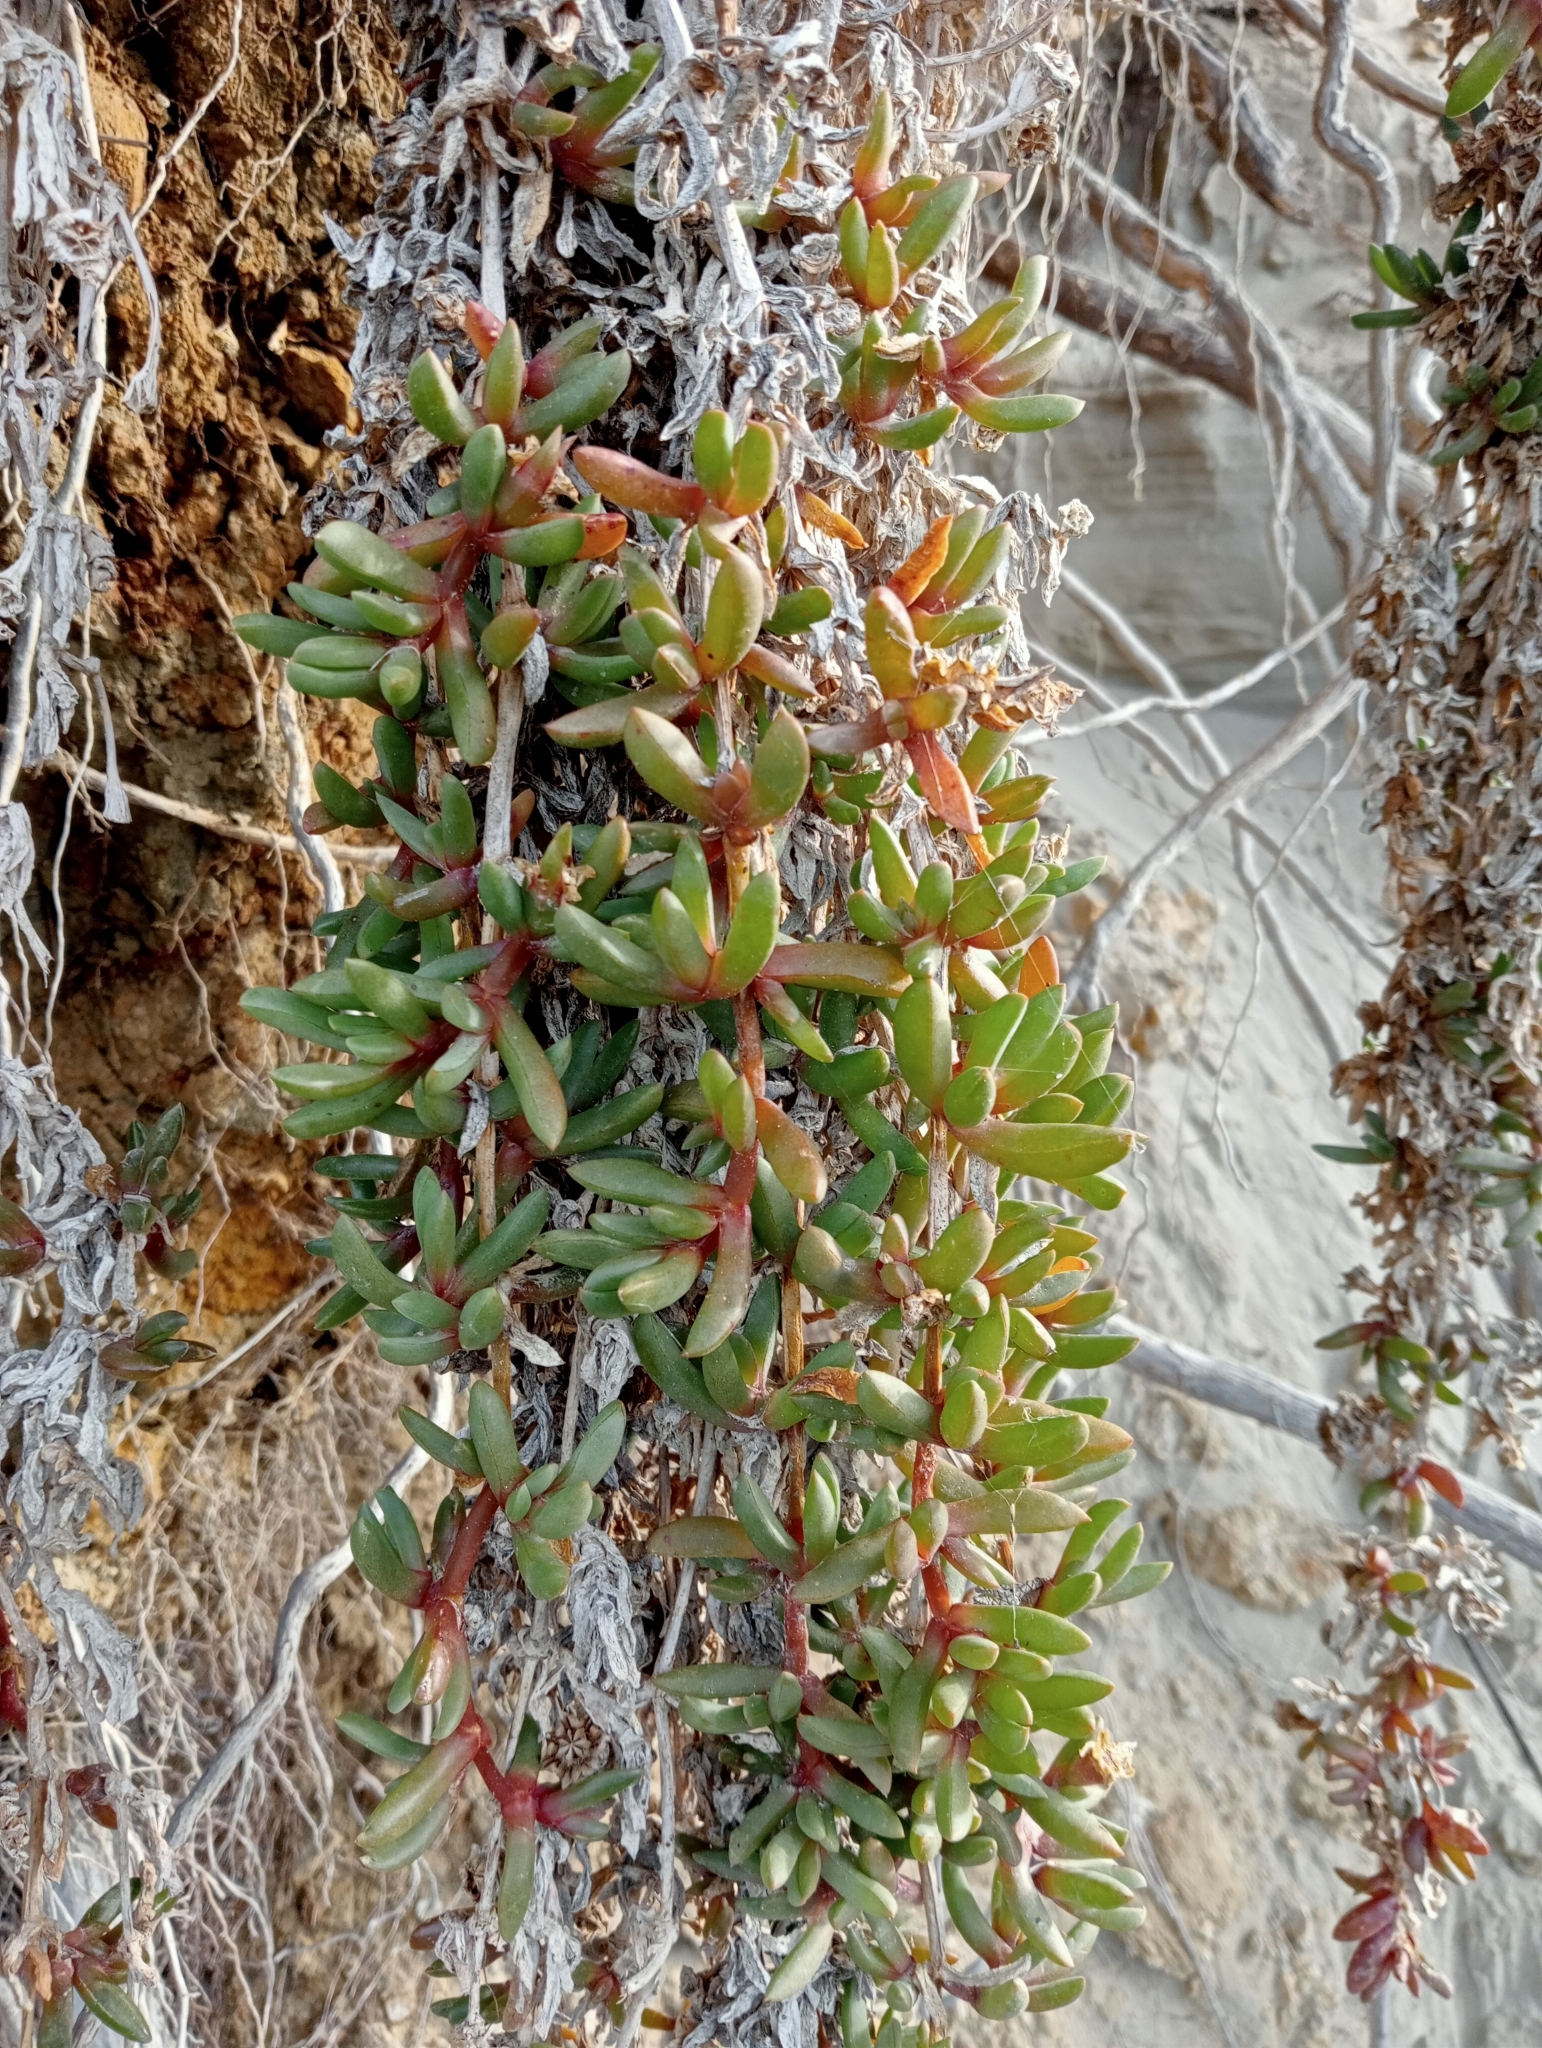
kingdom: Plantae
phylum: Tracheophyta
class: Magnoliopsida
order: Caryophyllales
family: Aizoaceae
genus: Disphyma
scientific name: Disphyma australe
